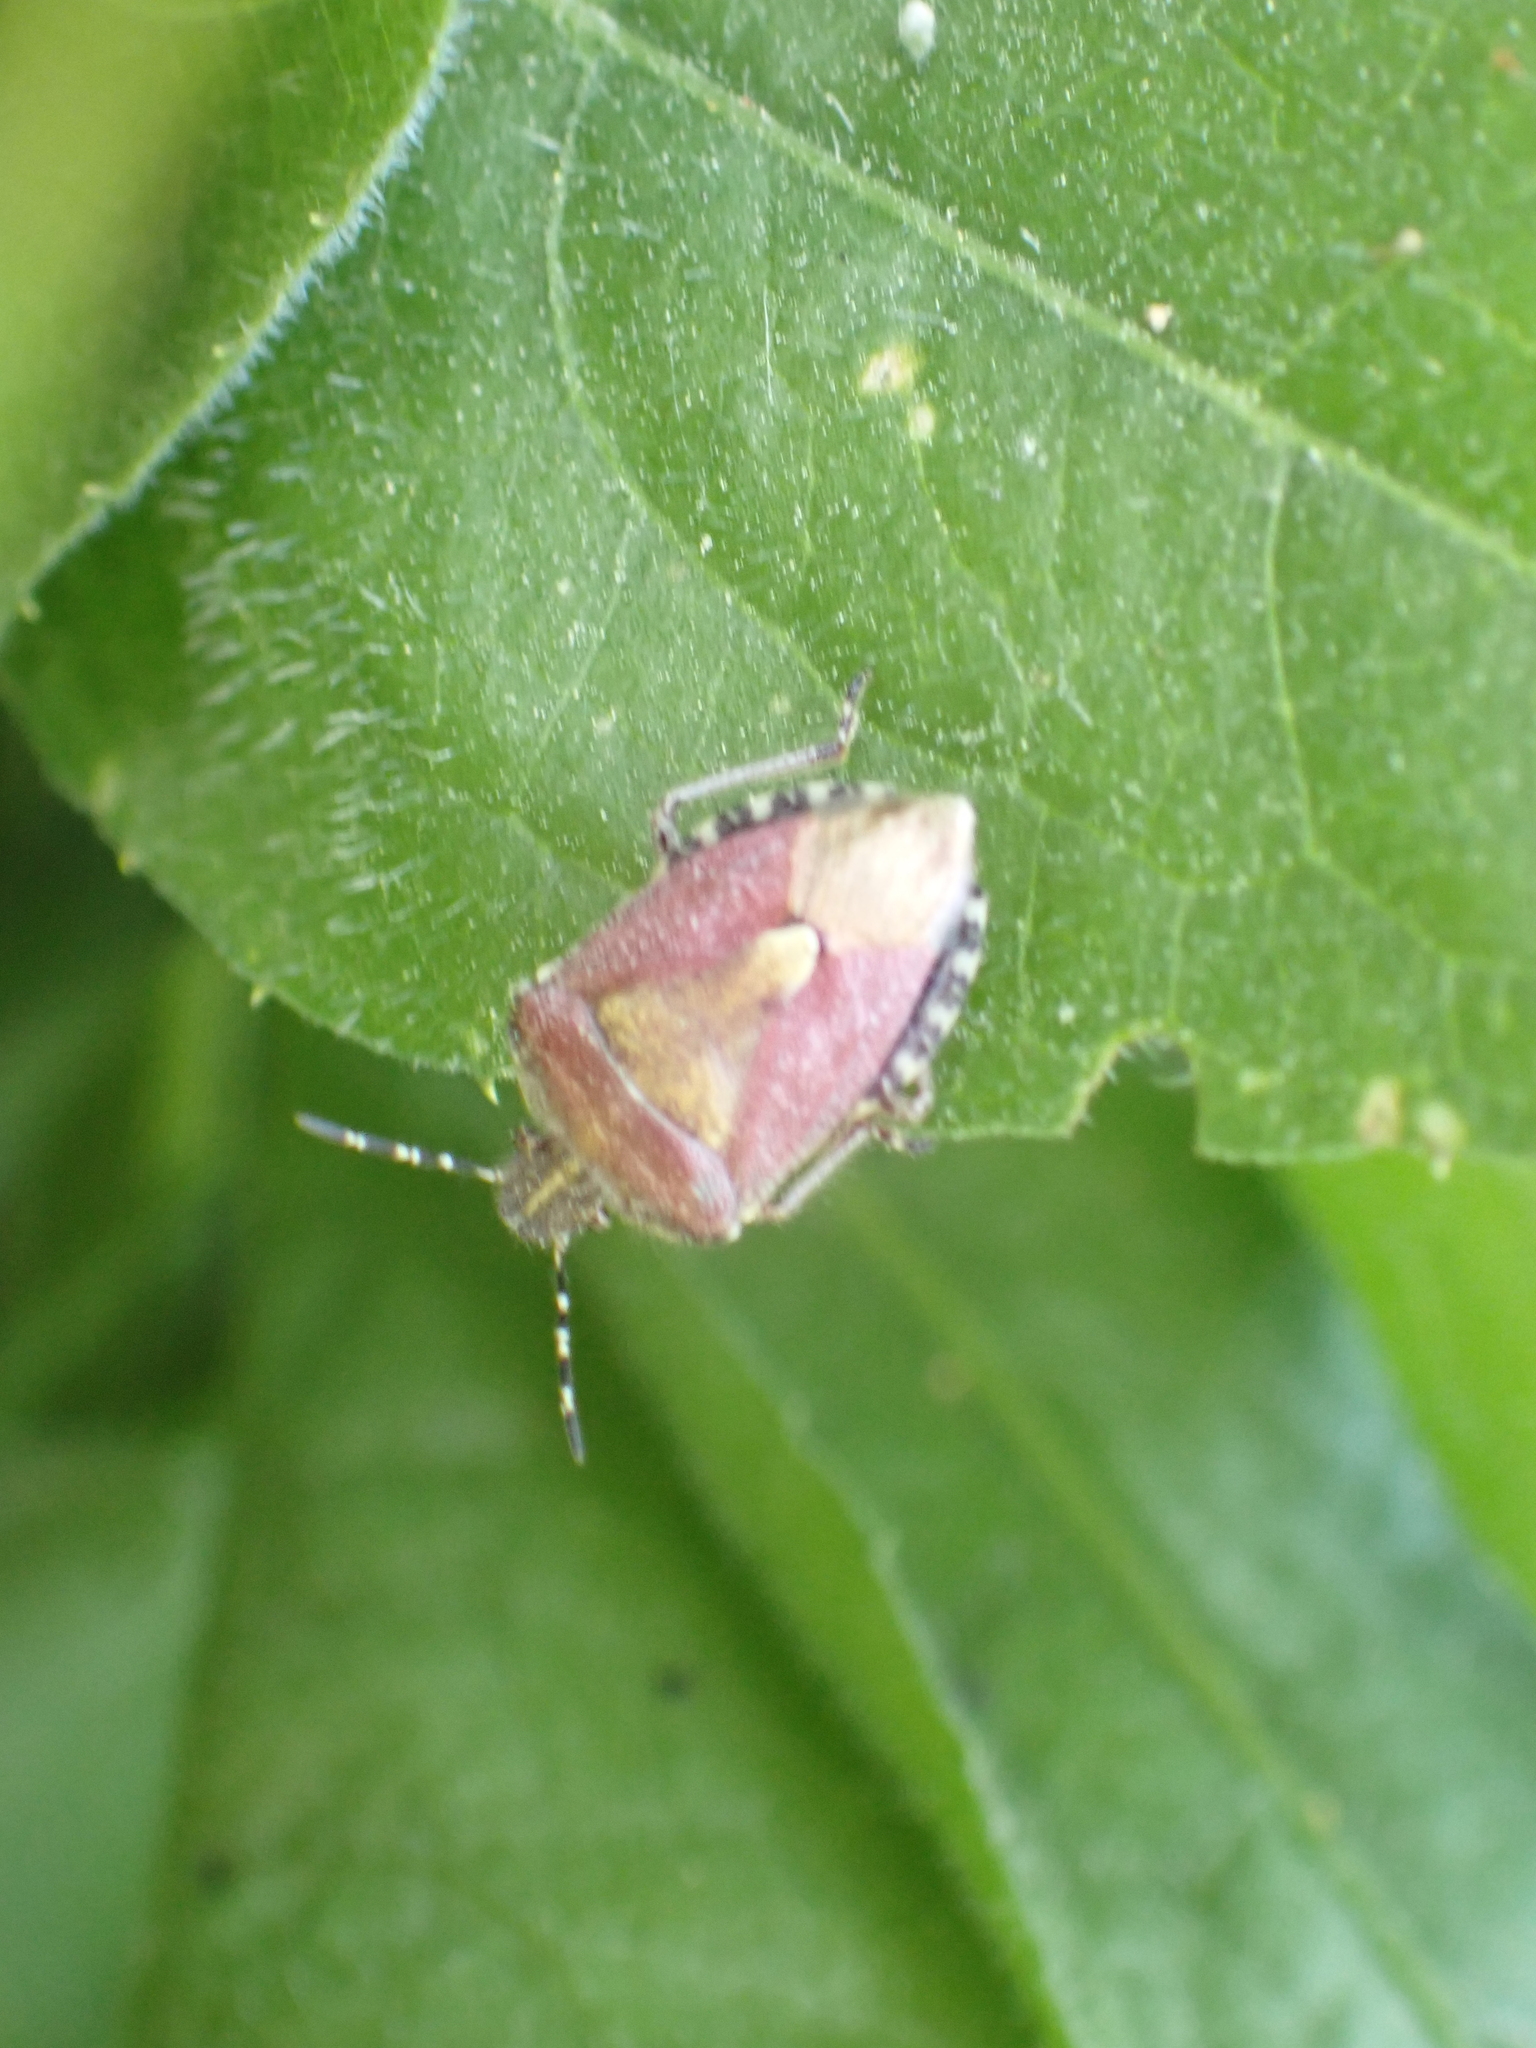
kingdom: Animalia
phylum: Arthropoda
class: Insecta
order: Hemiptera
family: Pentatomidae
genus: Dolycoris
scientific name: Dolycoris baccarum
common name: Sloe bug
